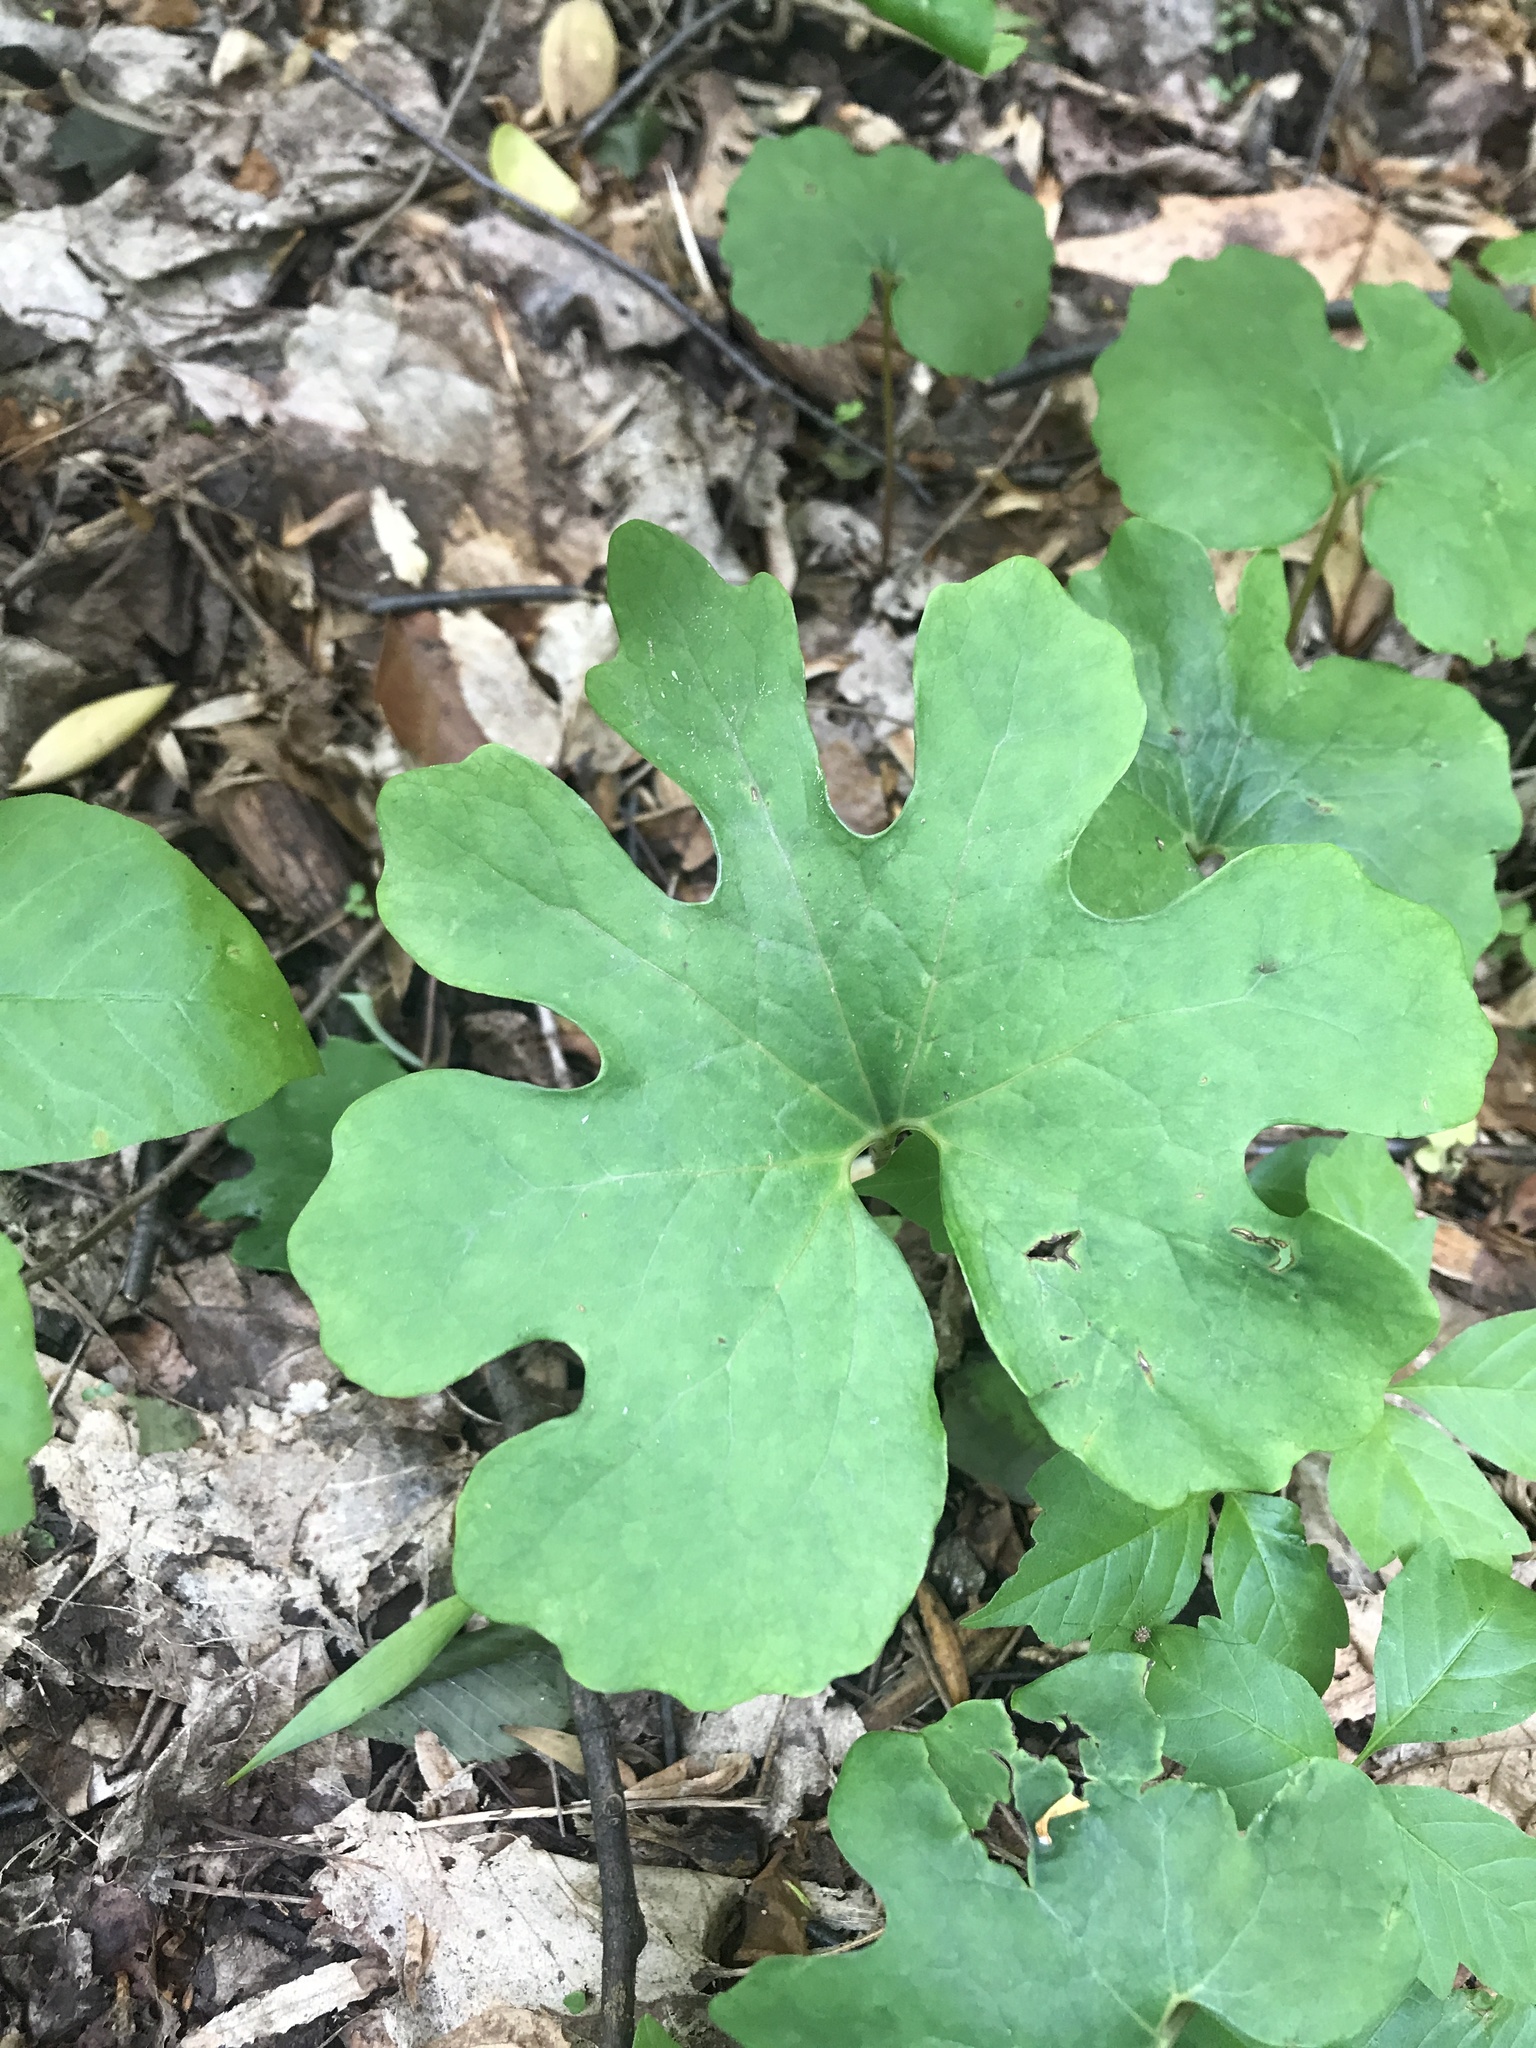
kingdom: Plantae
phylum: Tracheophyta
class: Magnoliopsida
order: Ranunculales
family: Papaveraceae
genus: Sanguinaria
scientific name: Sanguinaria canadensis
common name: Bloodroot
